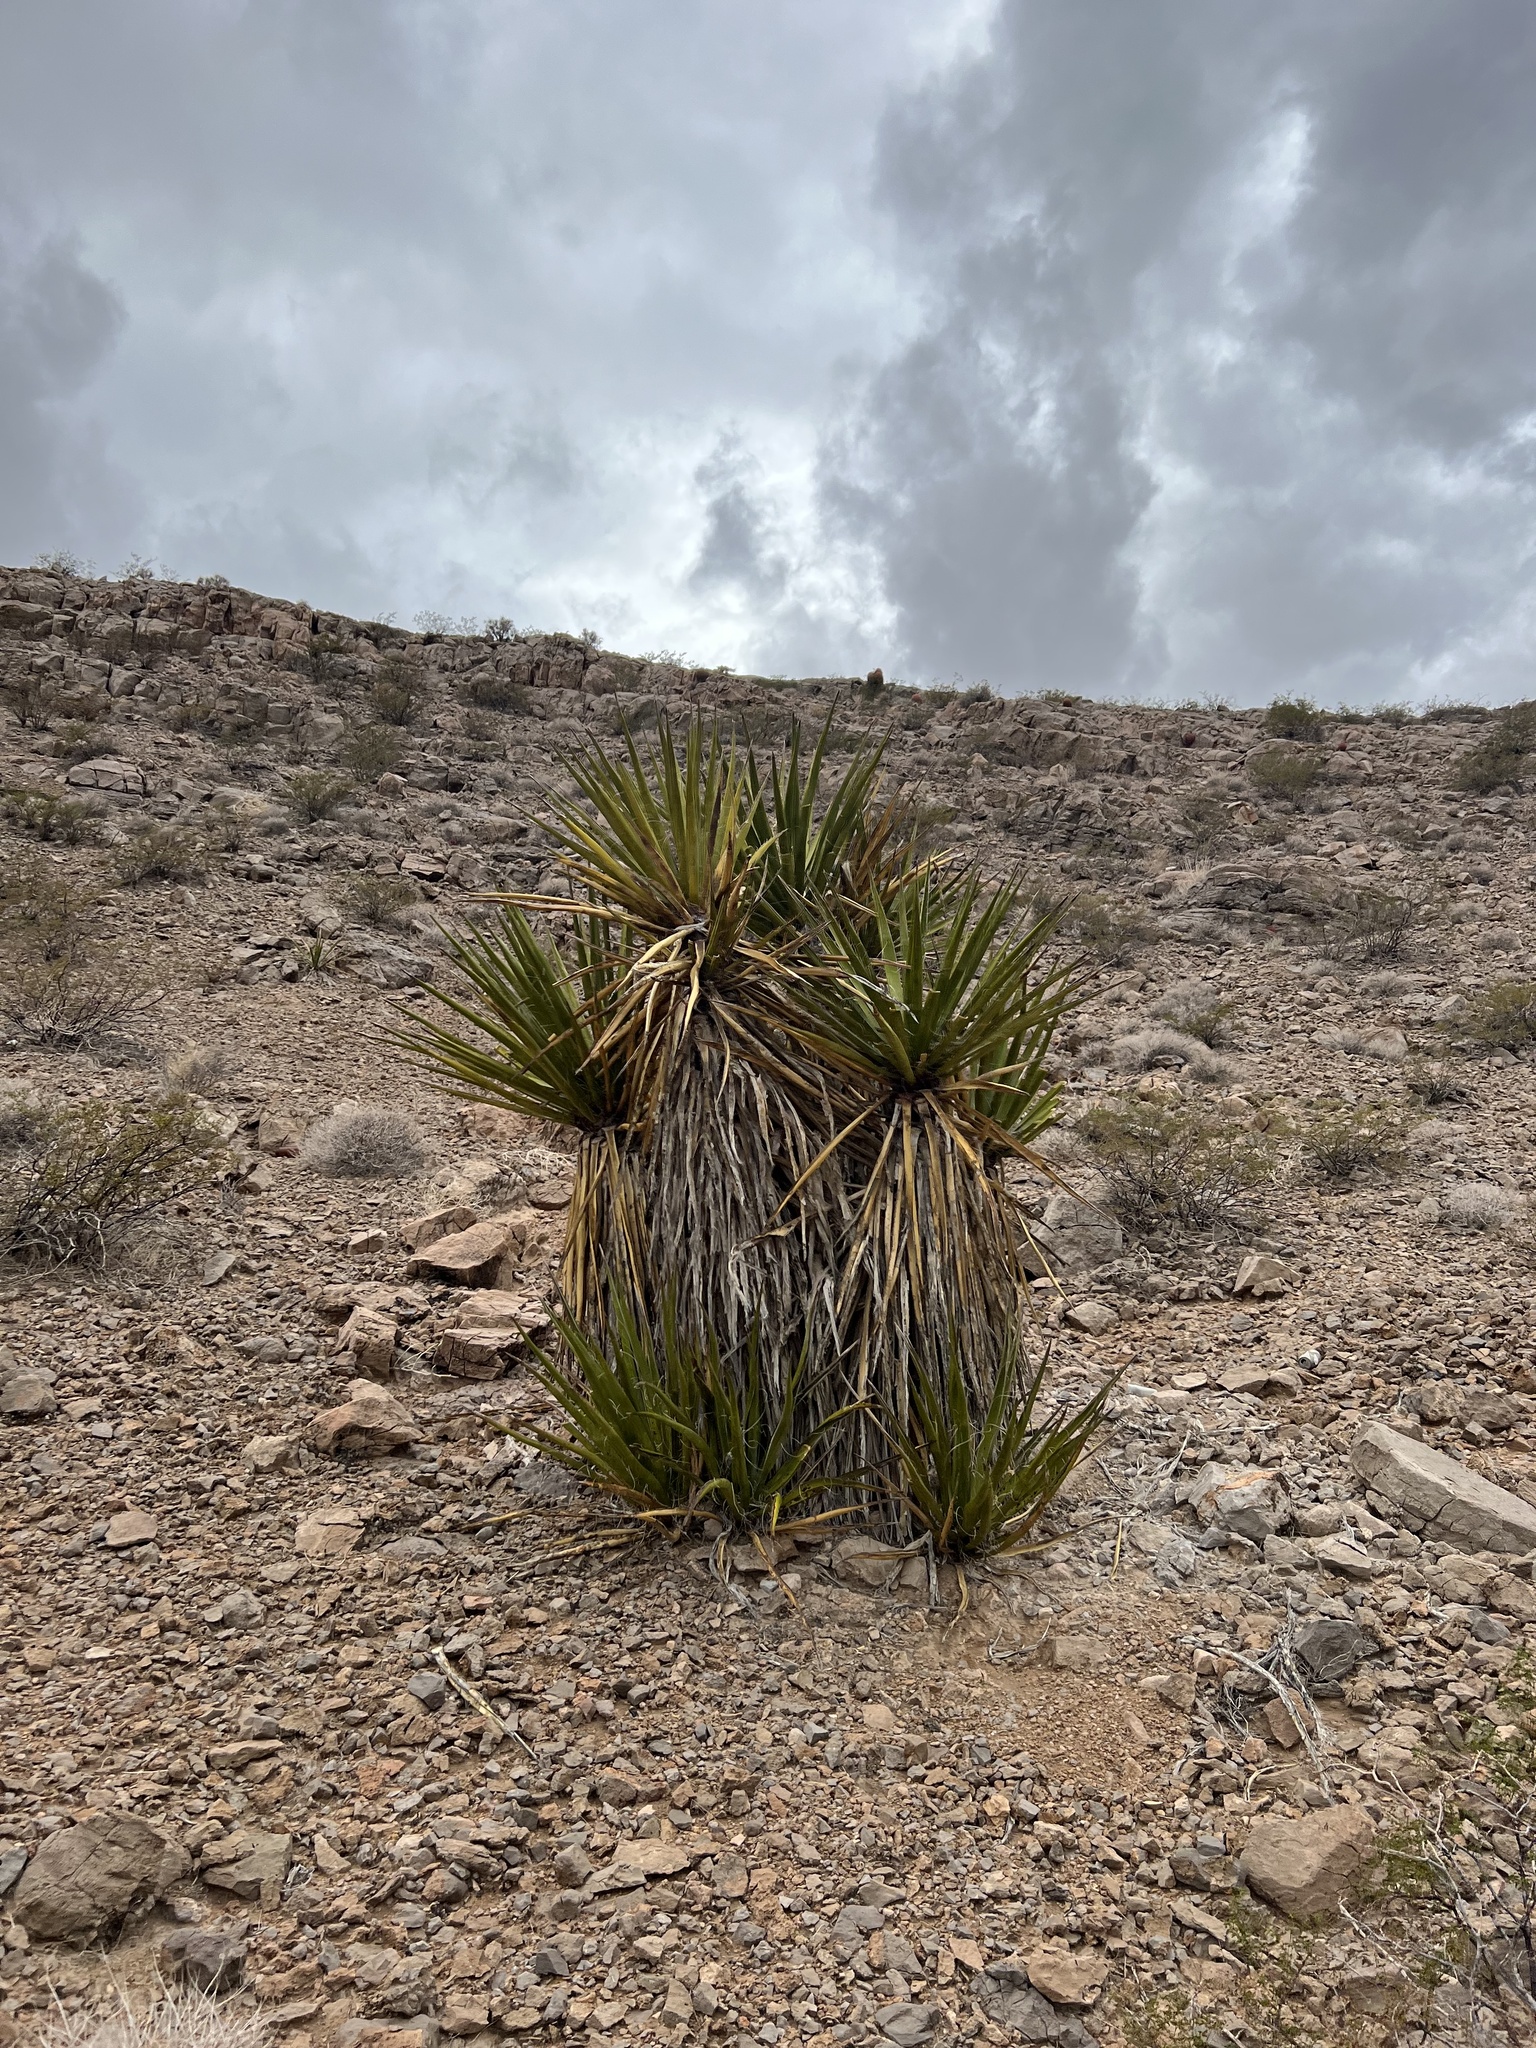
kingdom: Plantae
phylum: Tracheophyta
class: Liliopsida
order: Asparagales
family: Asparagaceae
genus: Yucca
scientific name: Yucca schidigera
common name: Mojave yucca
